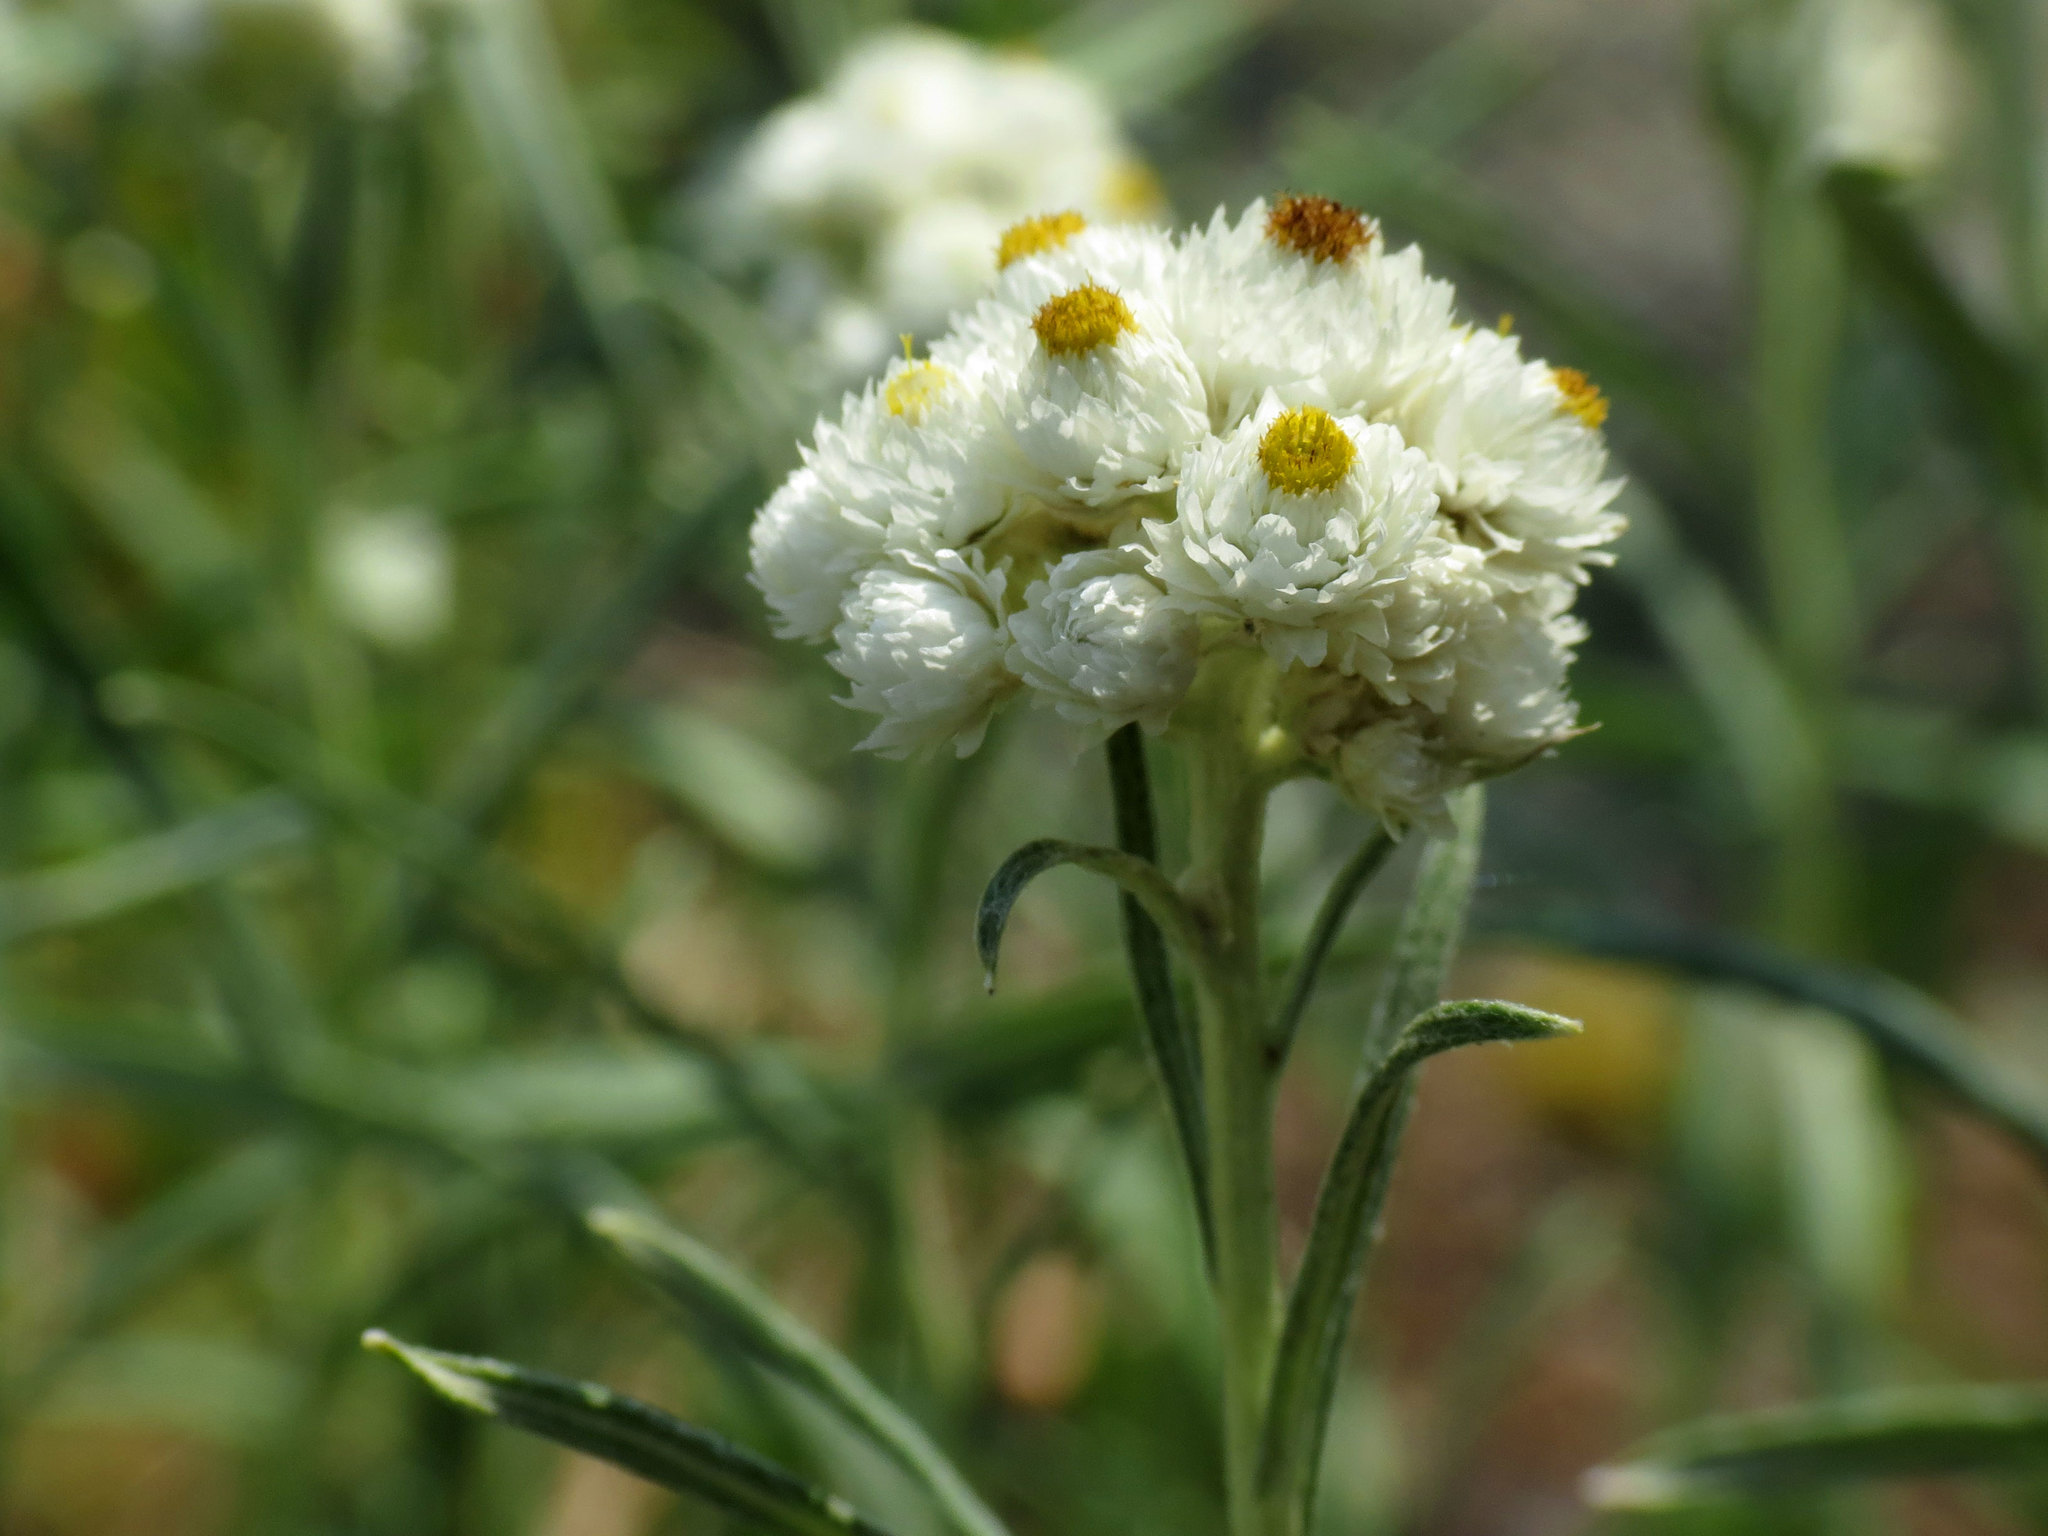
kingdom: Plantae
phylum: Tracheophyta
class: Magnoliopsida
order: Asterales
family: Asteraceae
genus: Anaphalis
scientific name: Anaphalis margaritacea
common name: Pearly everlasting
